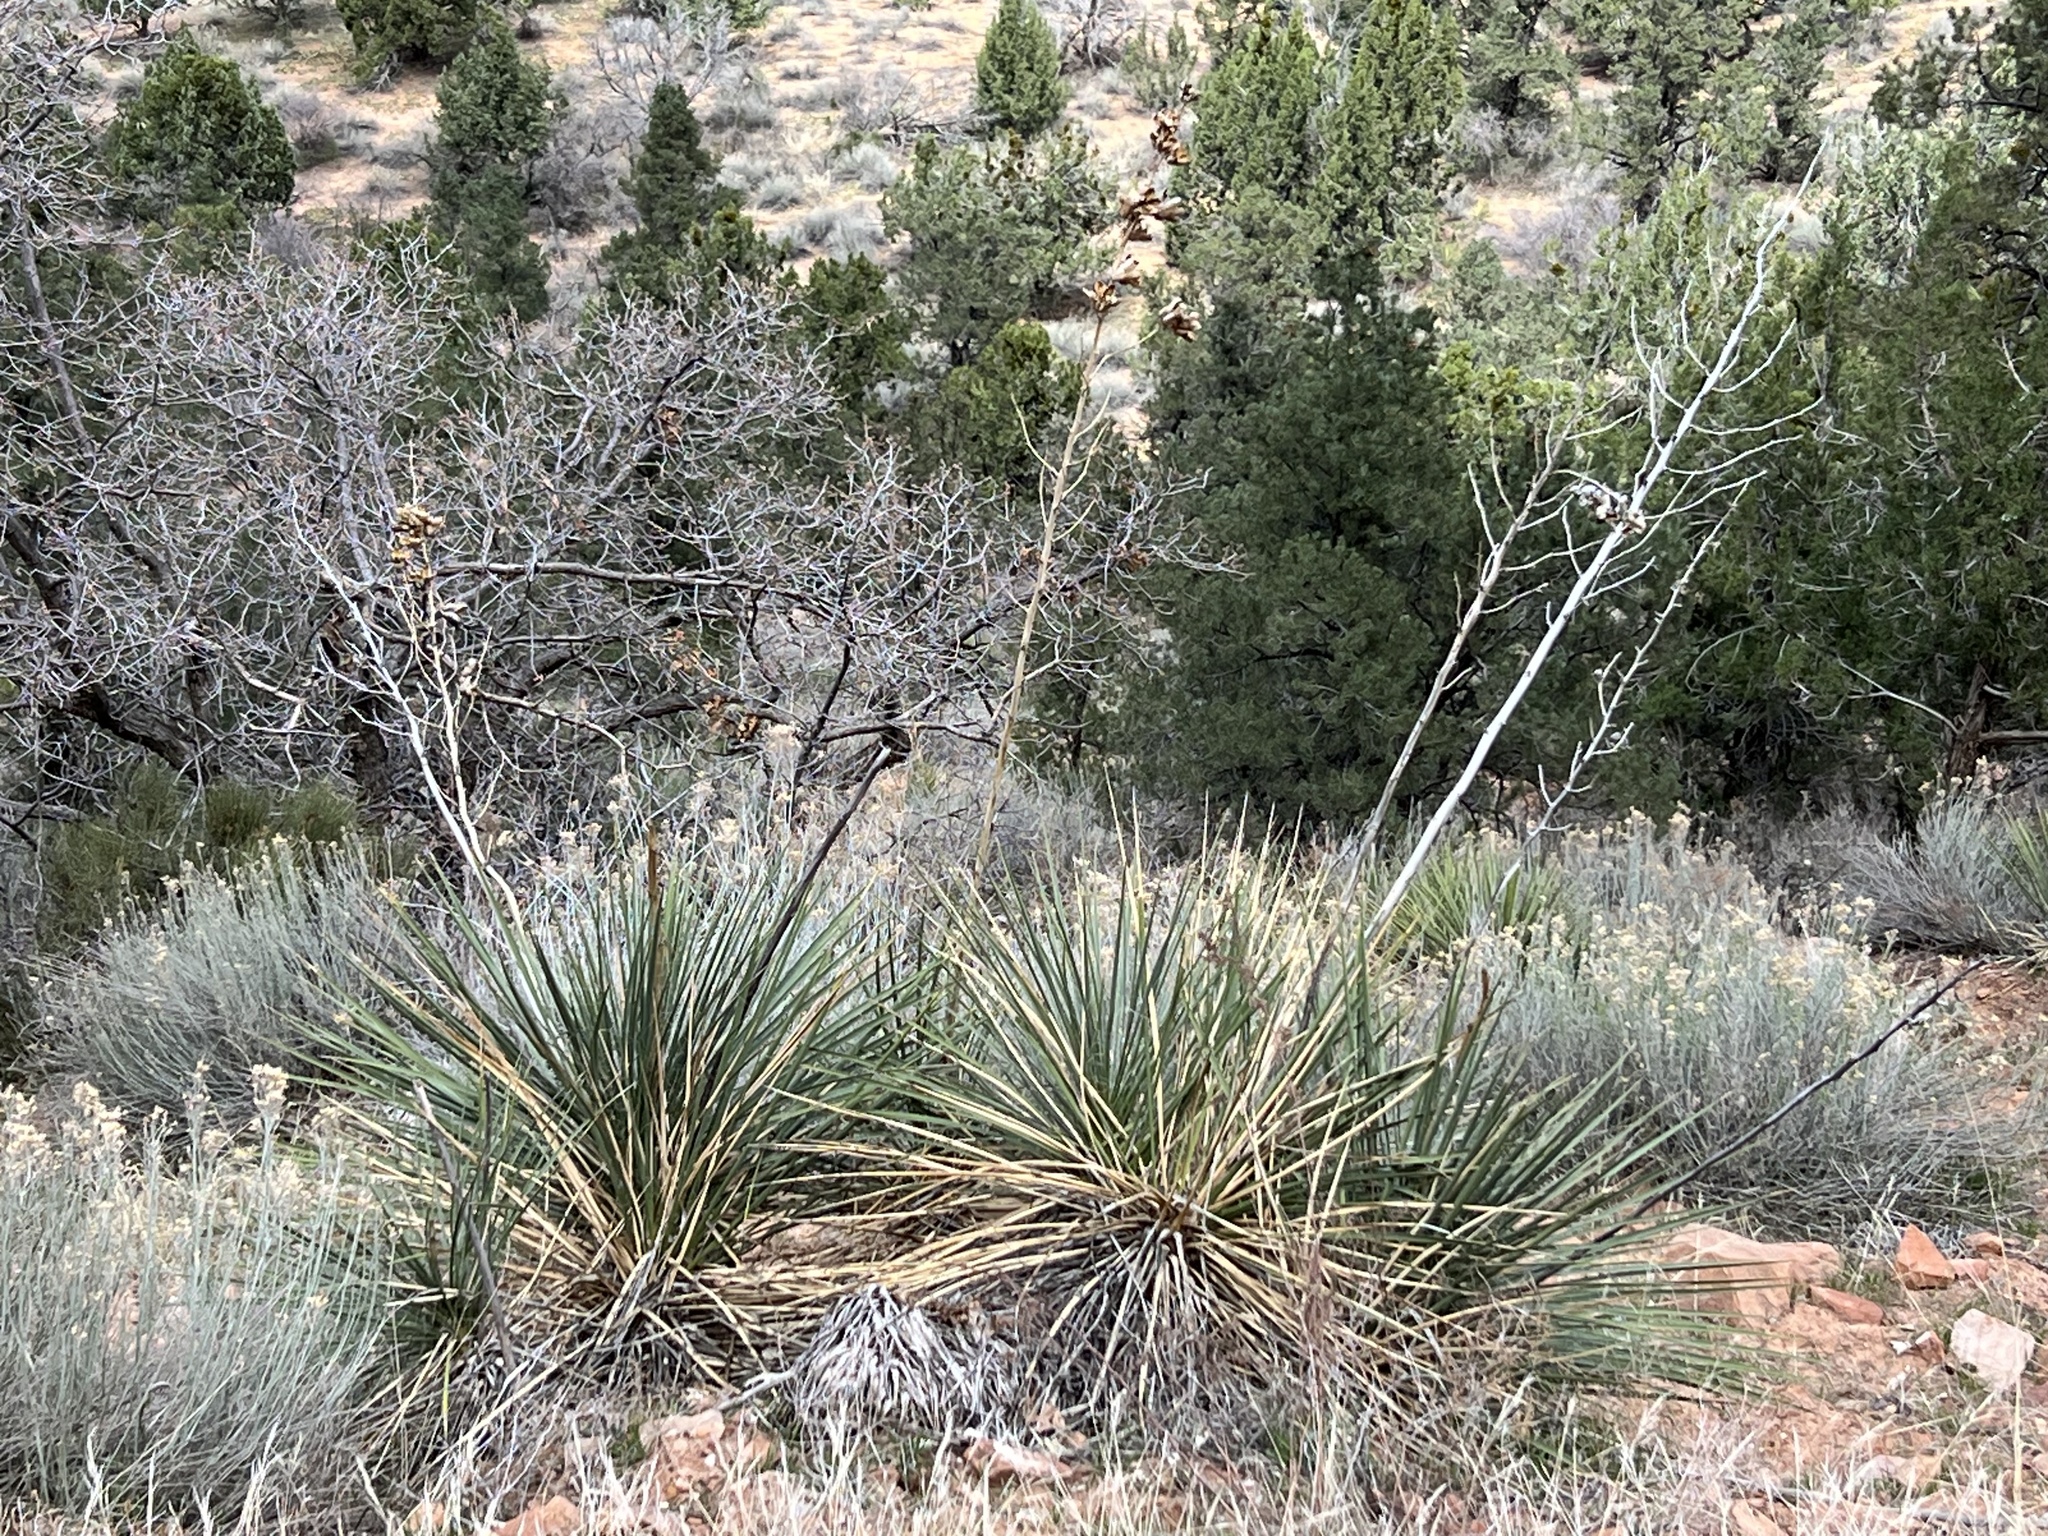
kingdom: Plantae
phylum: Tracheophyta
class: Liliopsida
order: Asparagales
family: Asparagaceae
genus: Yucca
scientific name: Yucca angustissima
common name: Narrowleaf yucca
